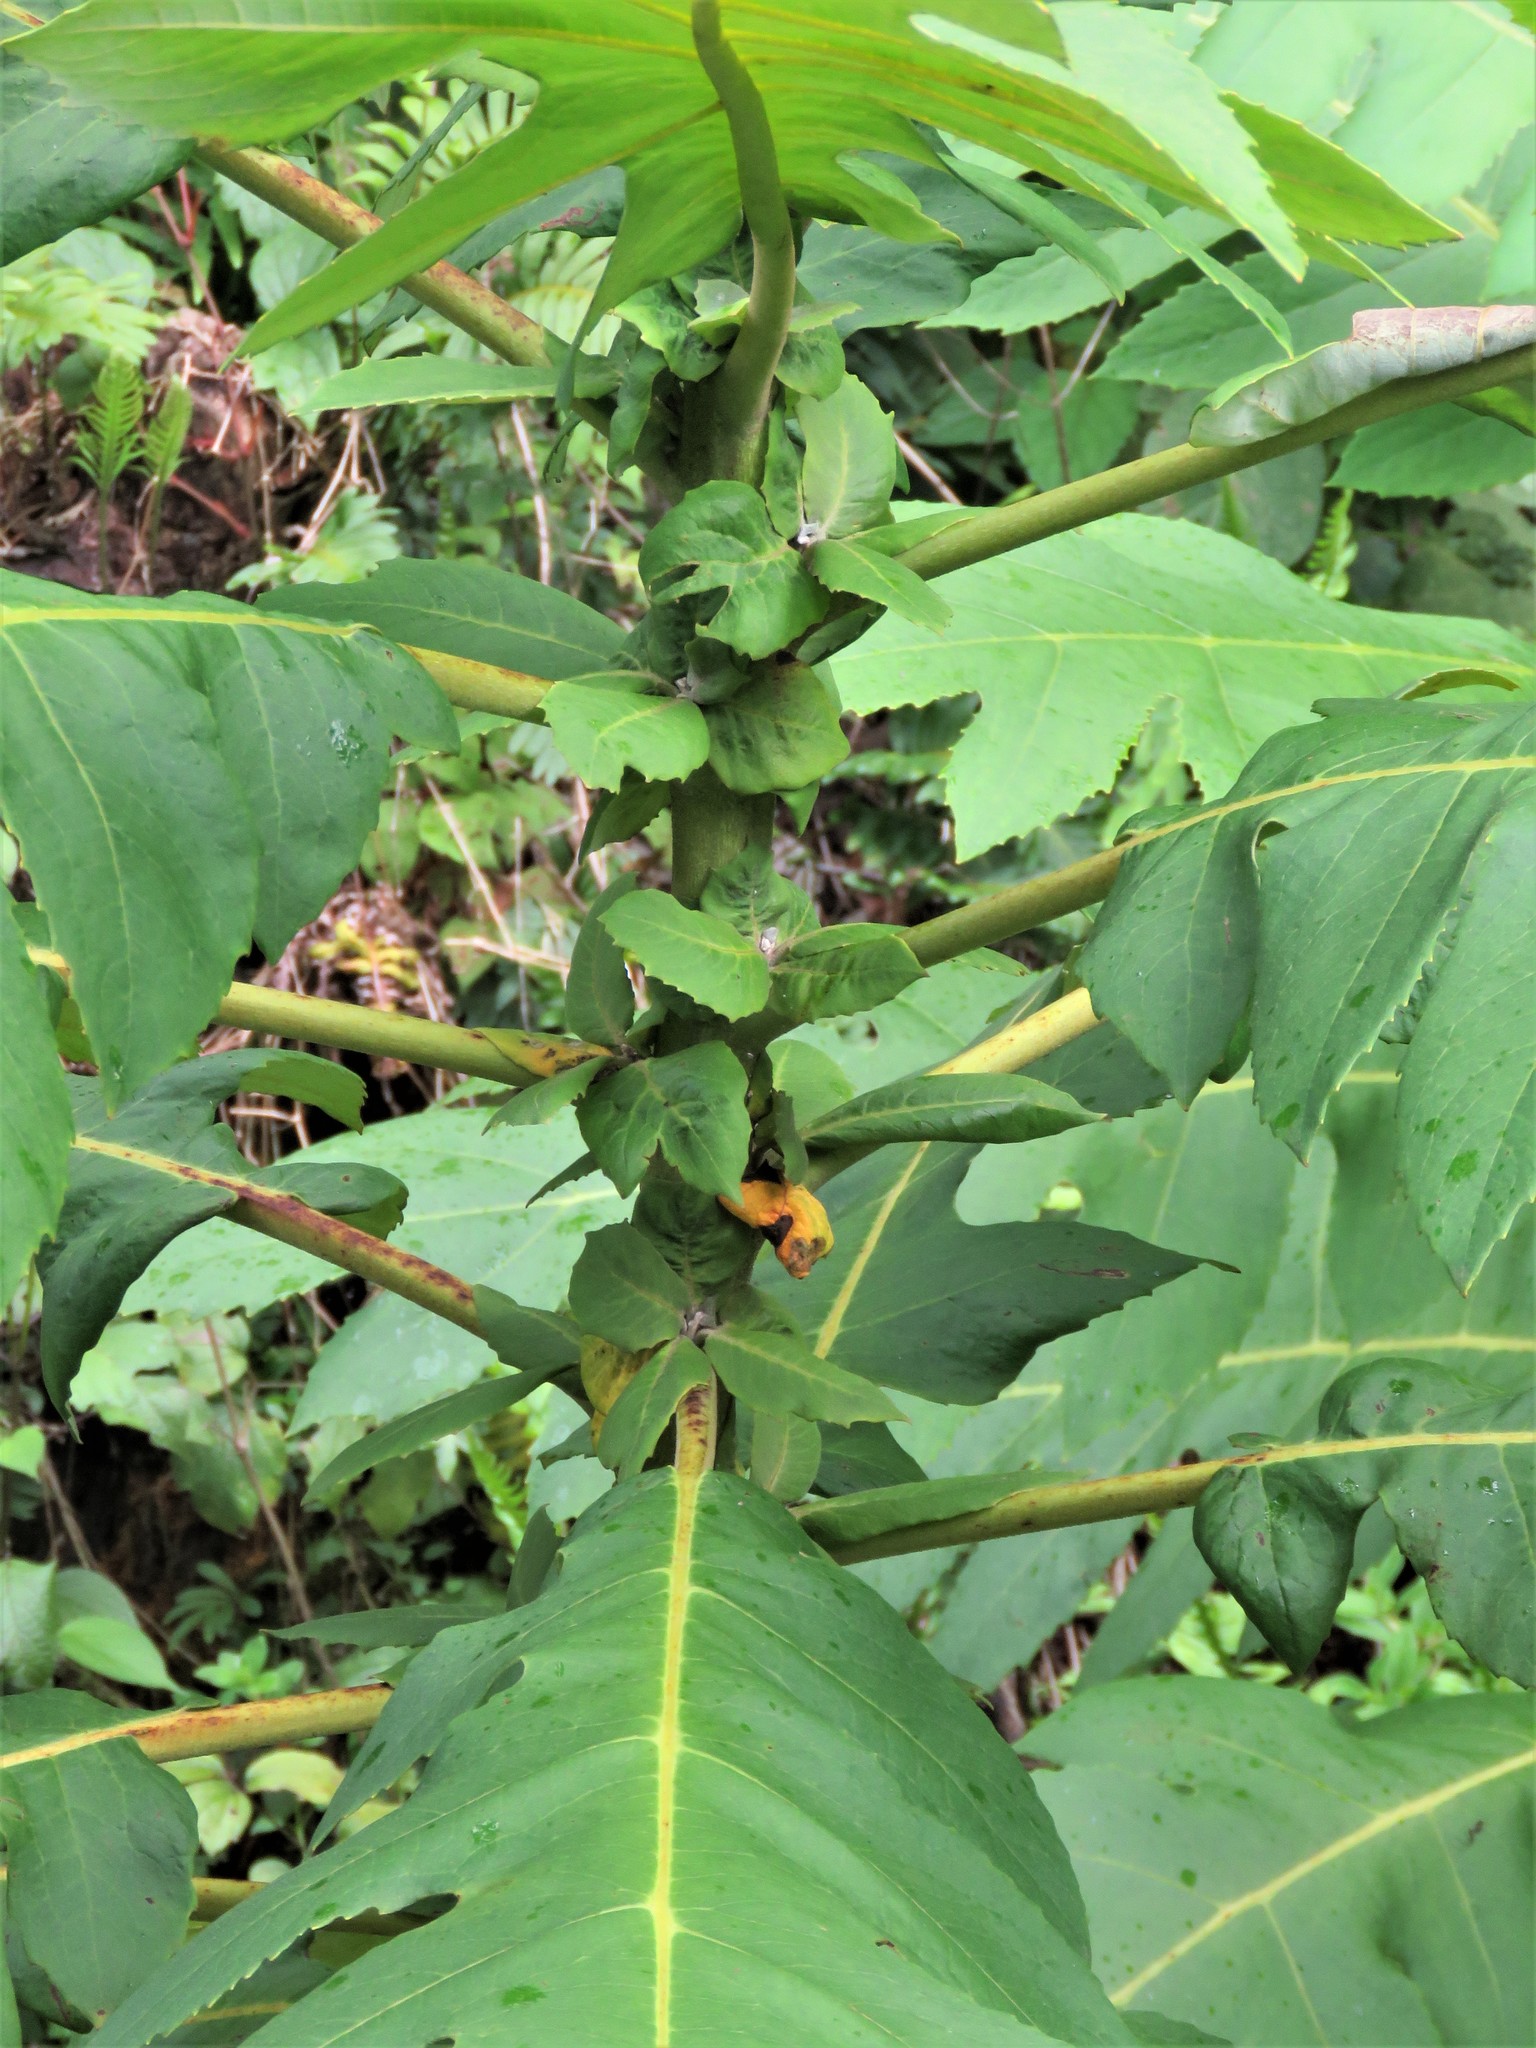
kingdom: Plantae
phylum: Tracheophyta
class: Magnoliopsida
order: Ranunculales
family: Papaveraceae
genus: Bocconia
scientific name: Bocconia frutescens
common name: Tree poppy
